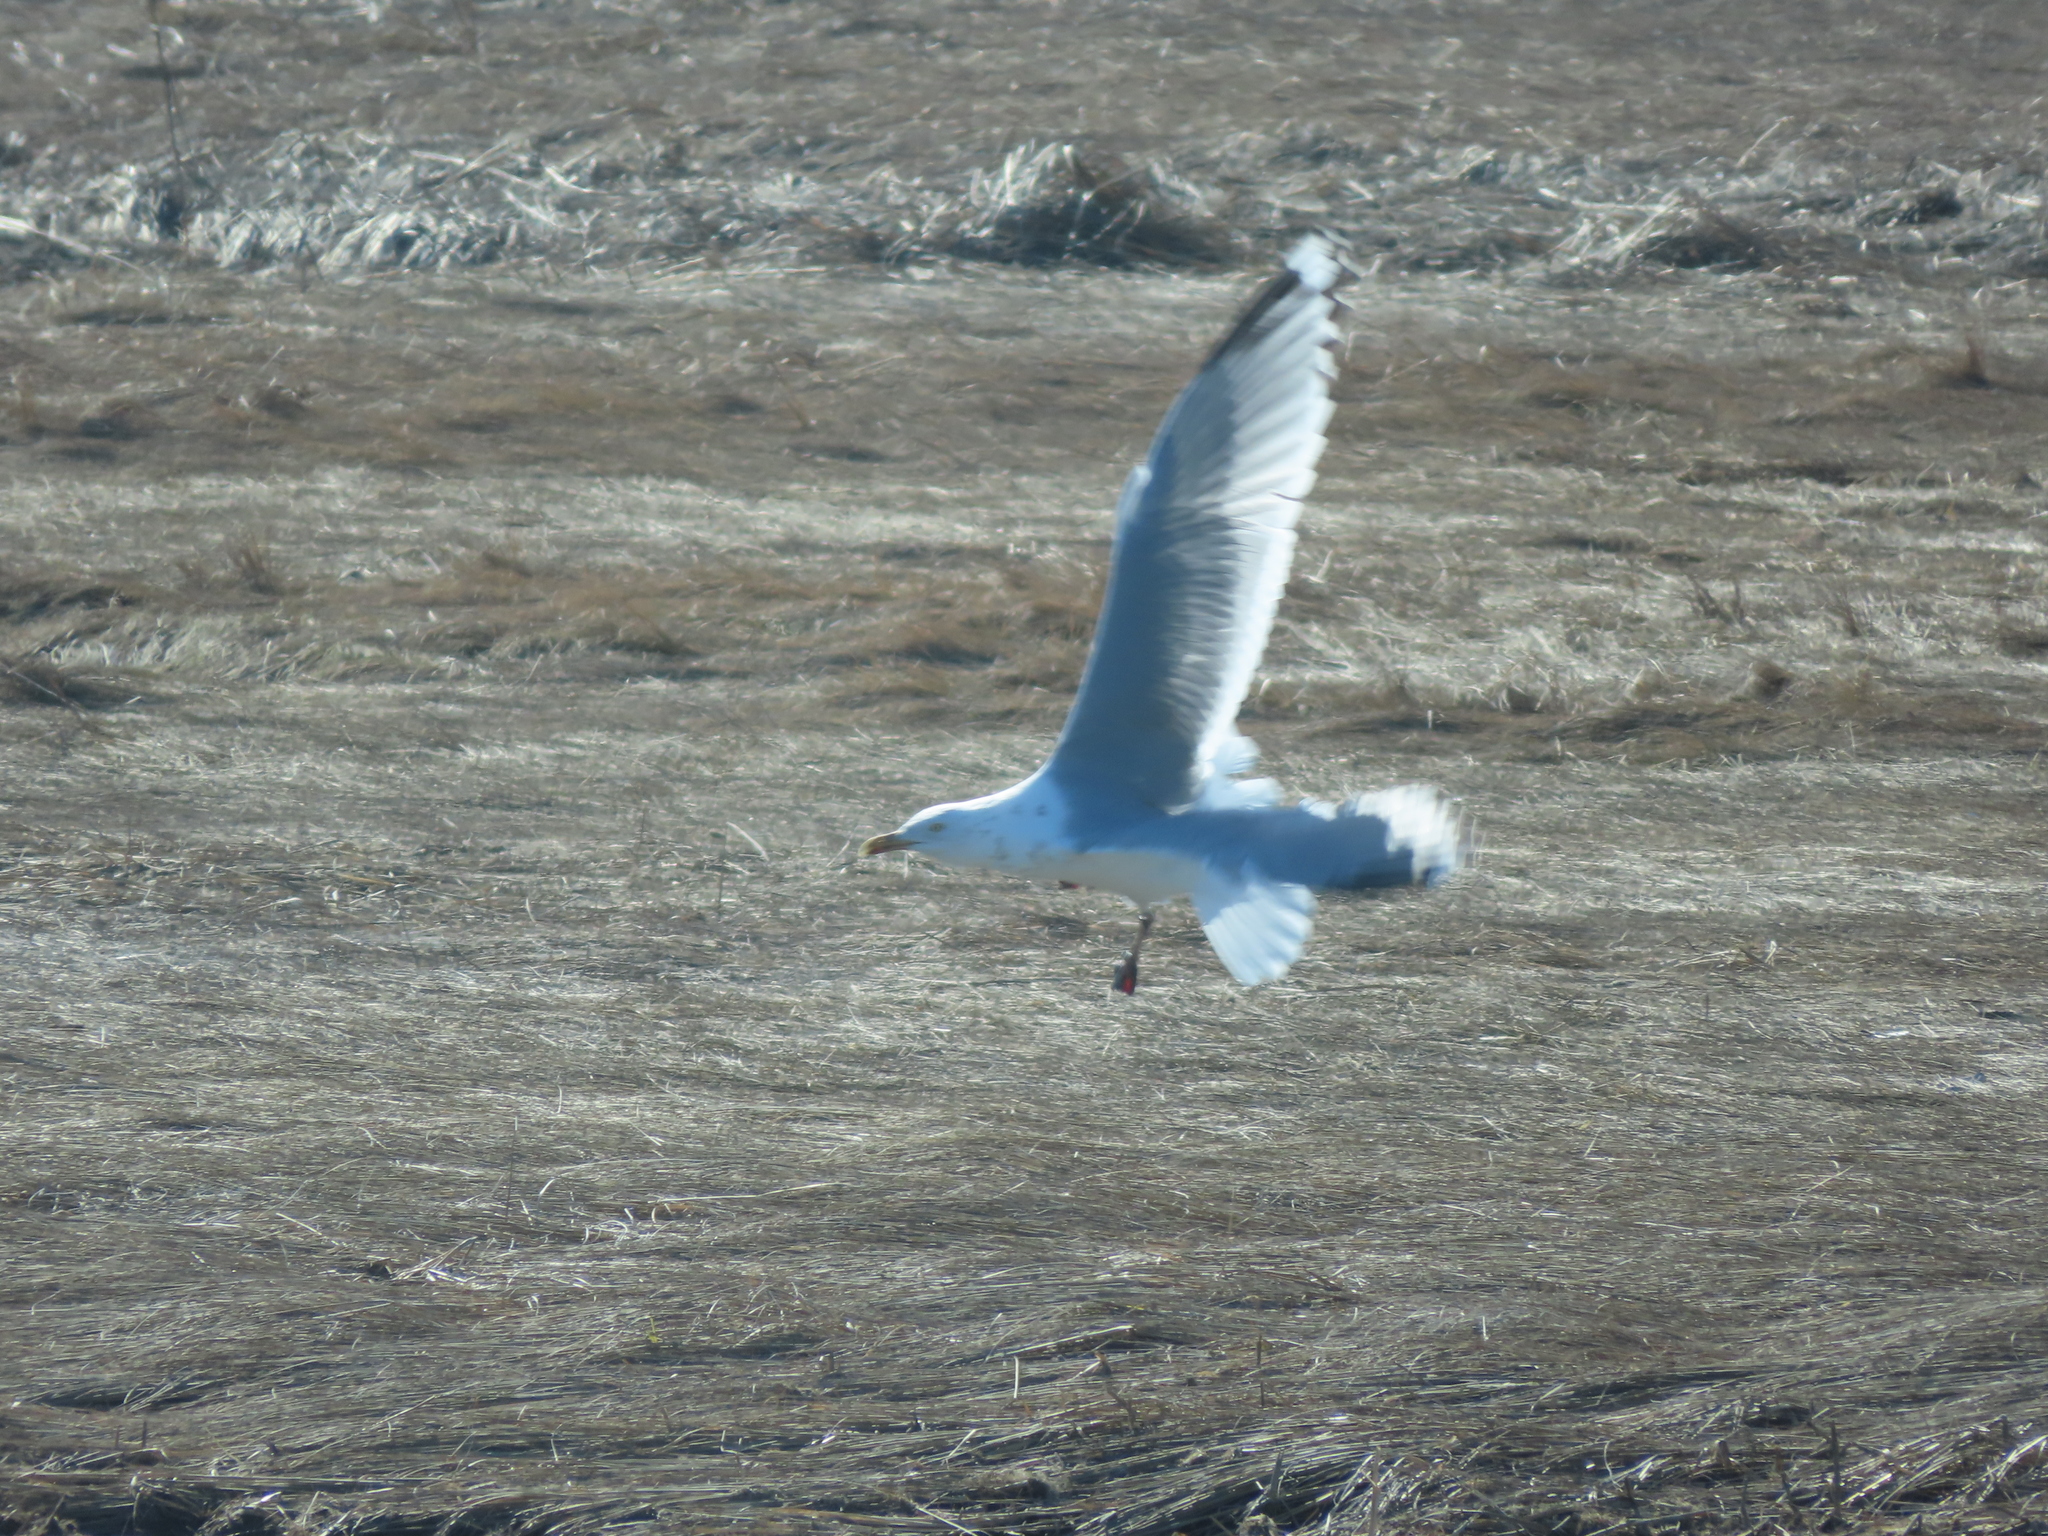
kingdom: Animalia
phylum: Chordata
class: Aves
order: Charadriiformes
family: Laridae
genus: Larus
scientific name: Larus argentatus
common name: Herring gull
